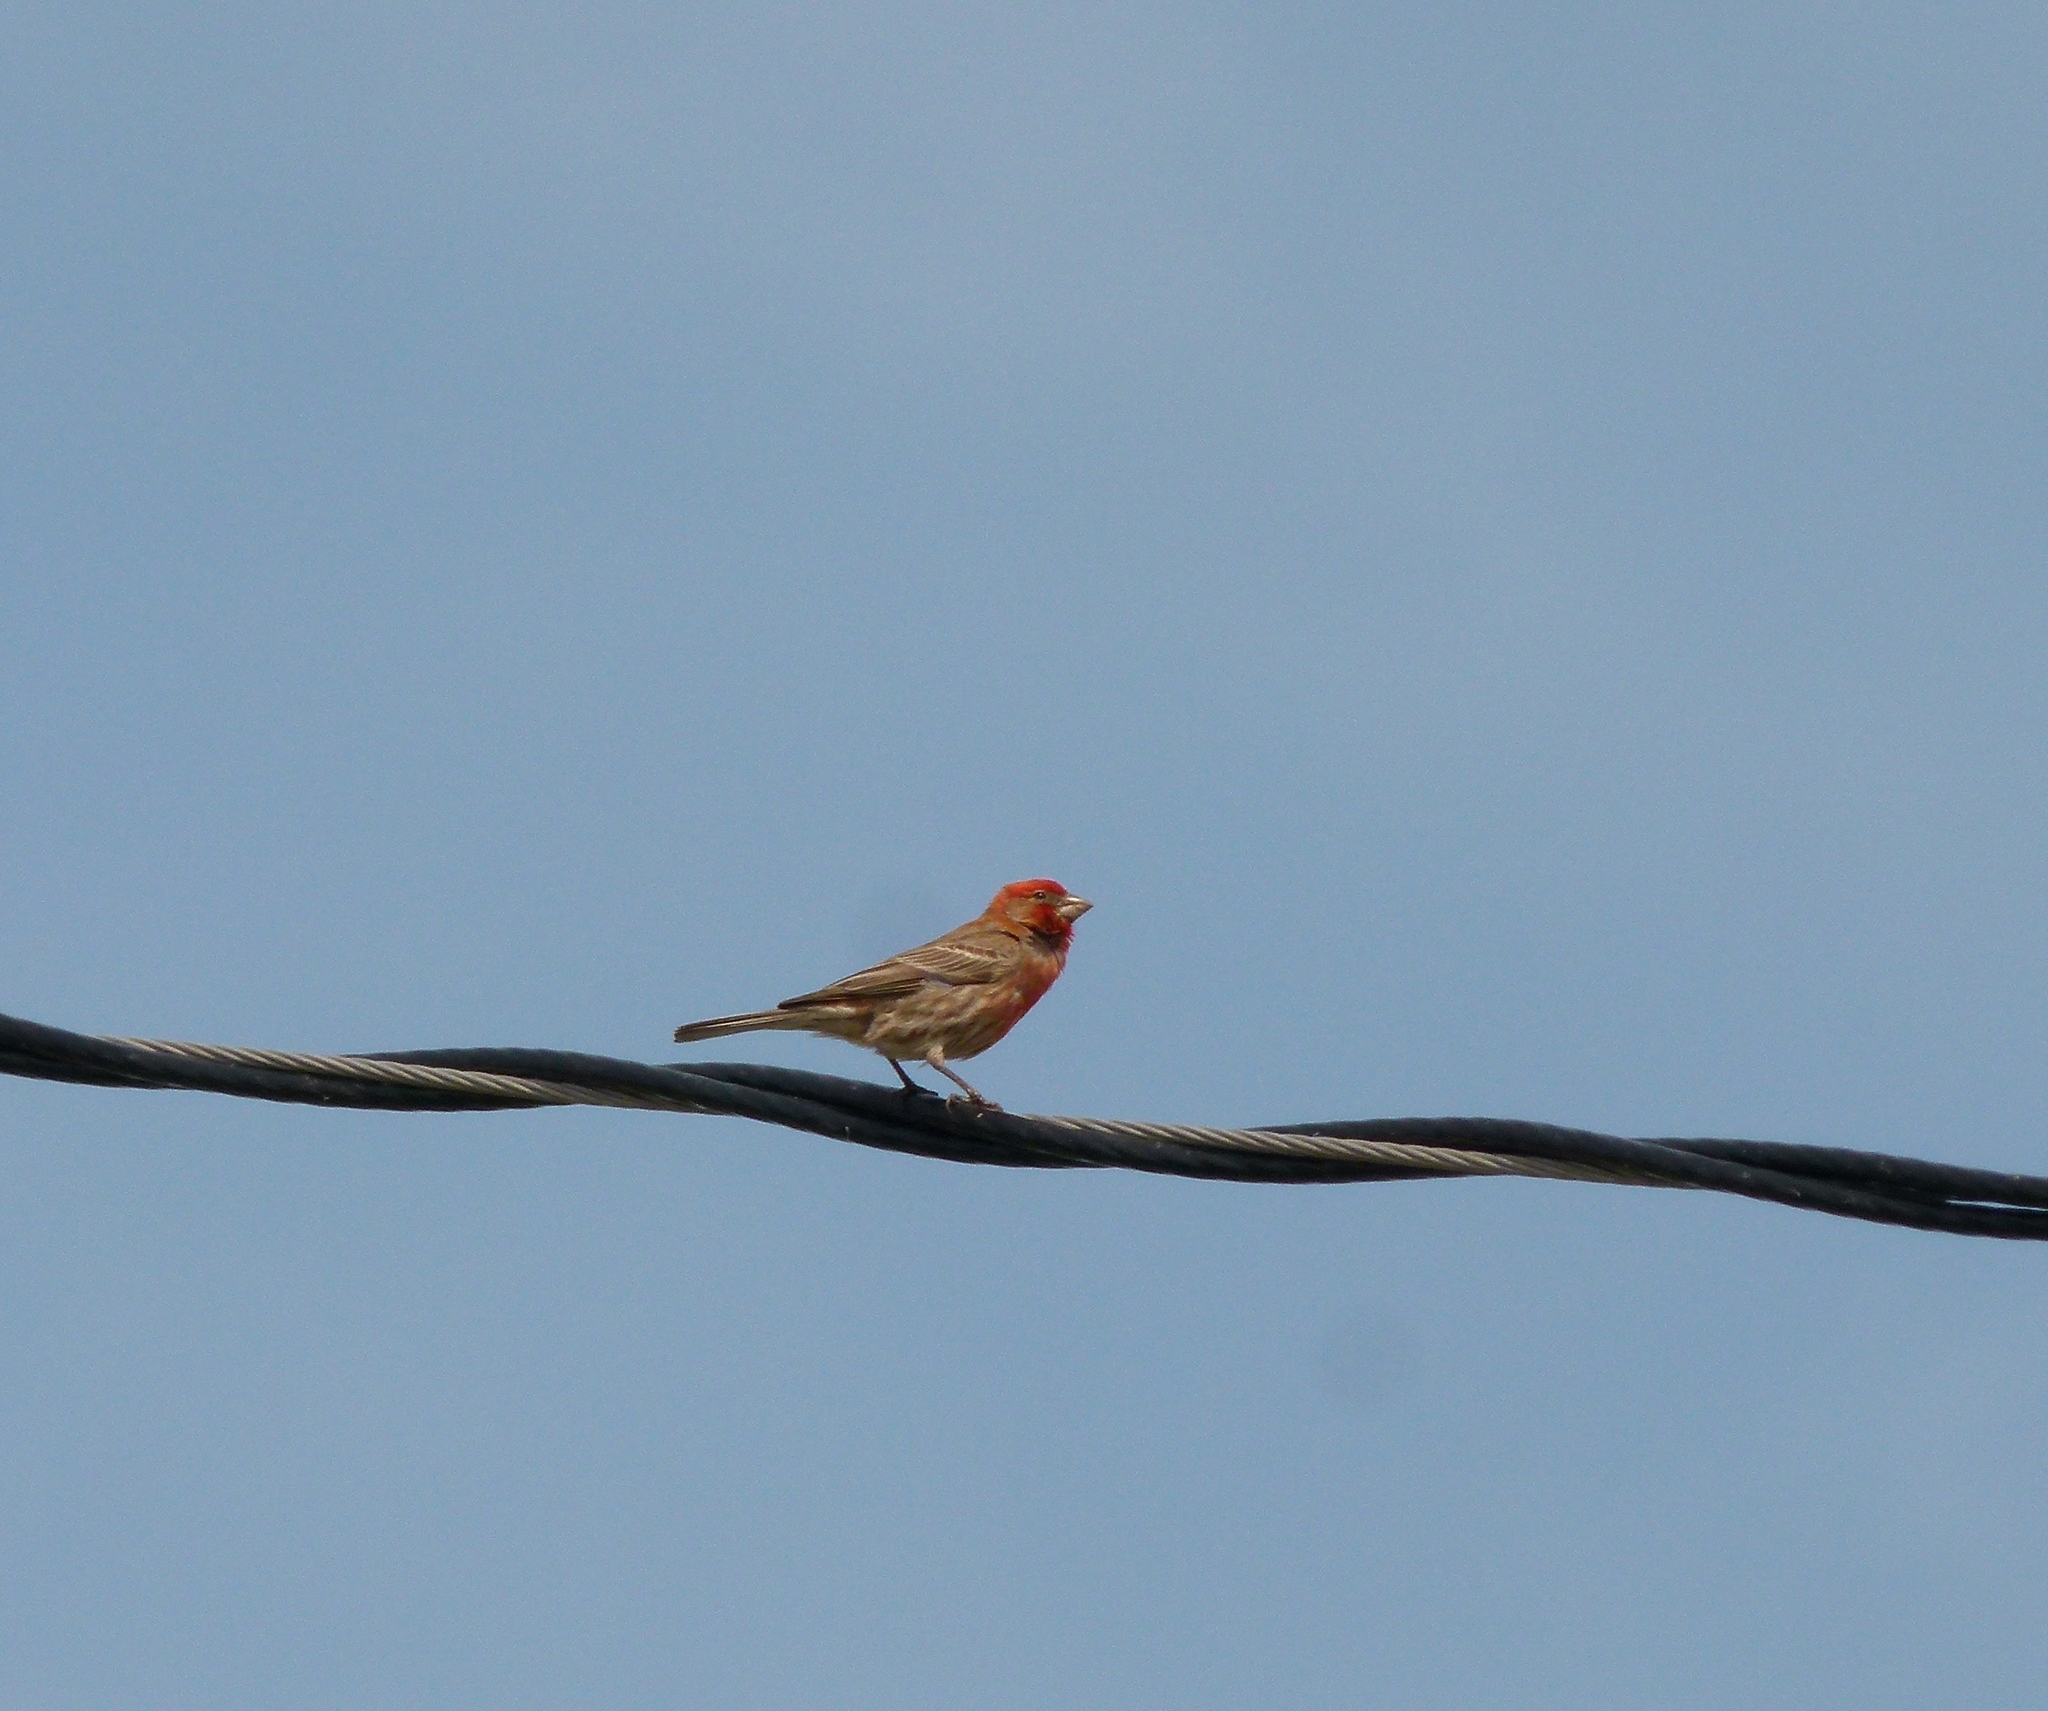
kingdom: Animalia
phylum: Chordata
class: Aves
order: Passeriformes
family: Fringillidae
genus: Haemorhous
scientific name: Haemorhous mexicanus
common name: House finch
